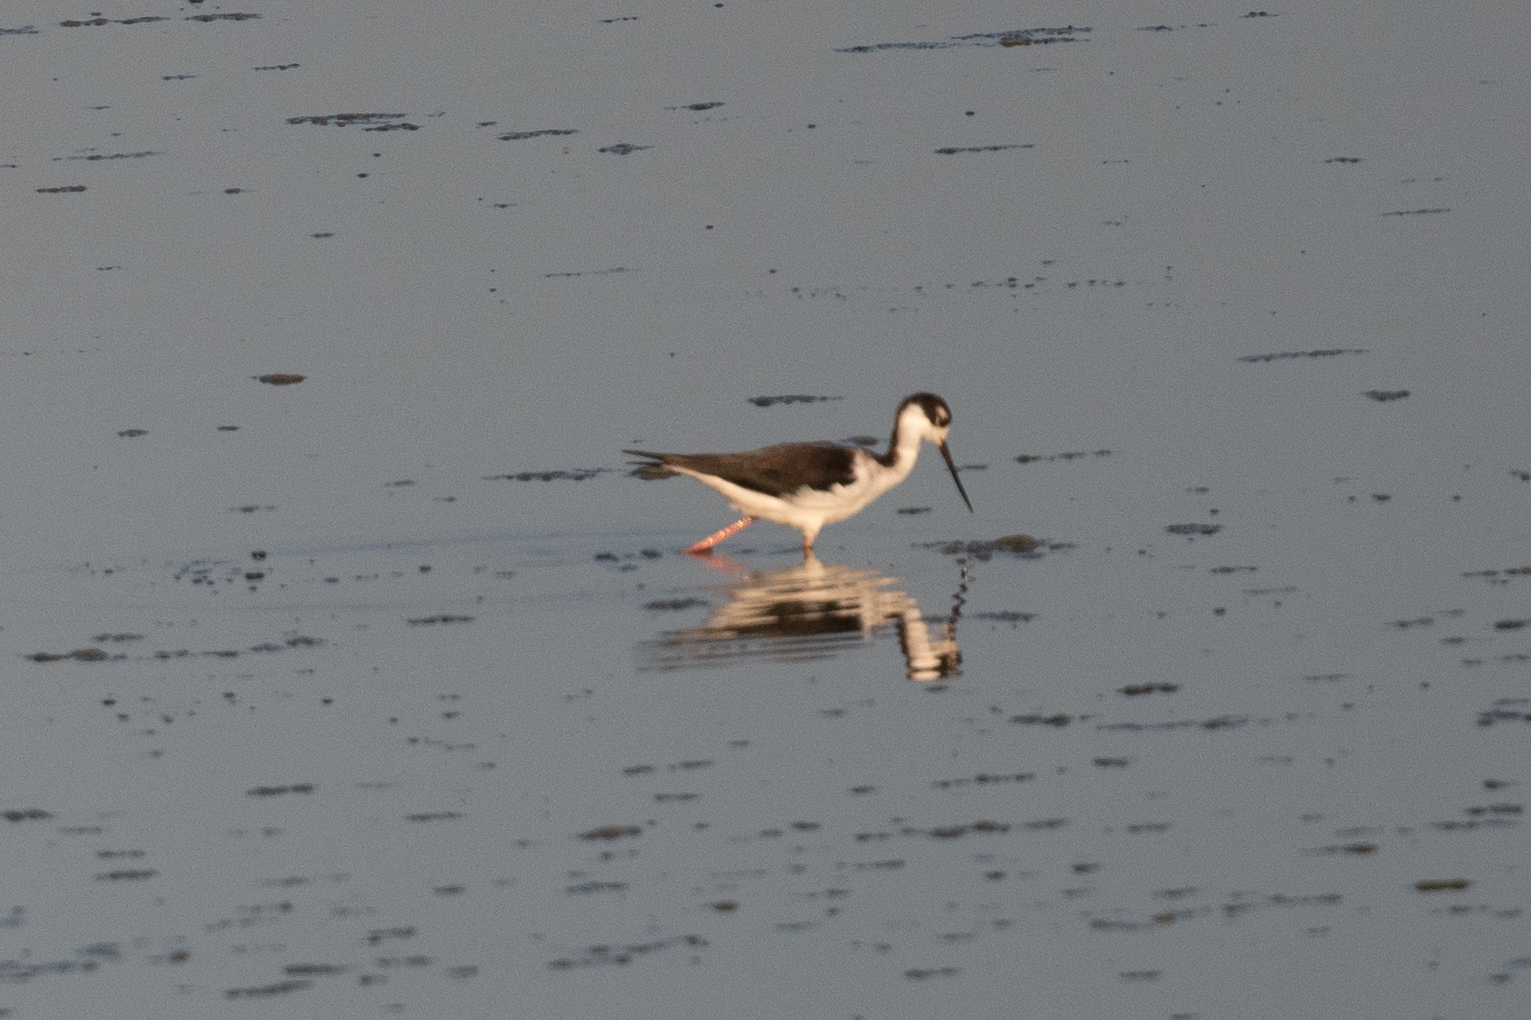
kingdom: Animalia
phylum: Chordata
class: Aves
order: Charadriiformes
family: Recurvirostridae
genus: Himantopus
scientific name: Himantopus mexicanus
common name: Black-necked stilt
